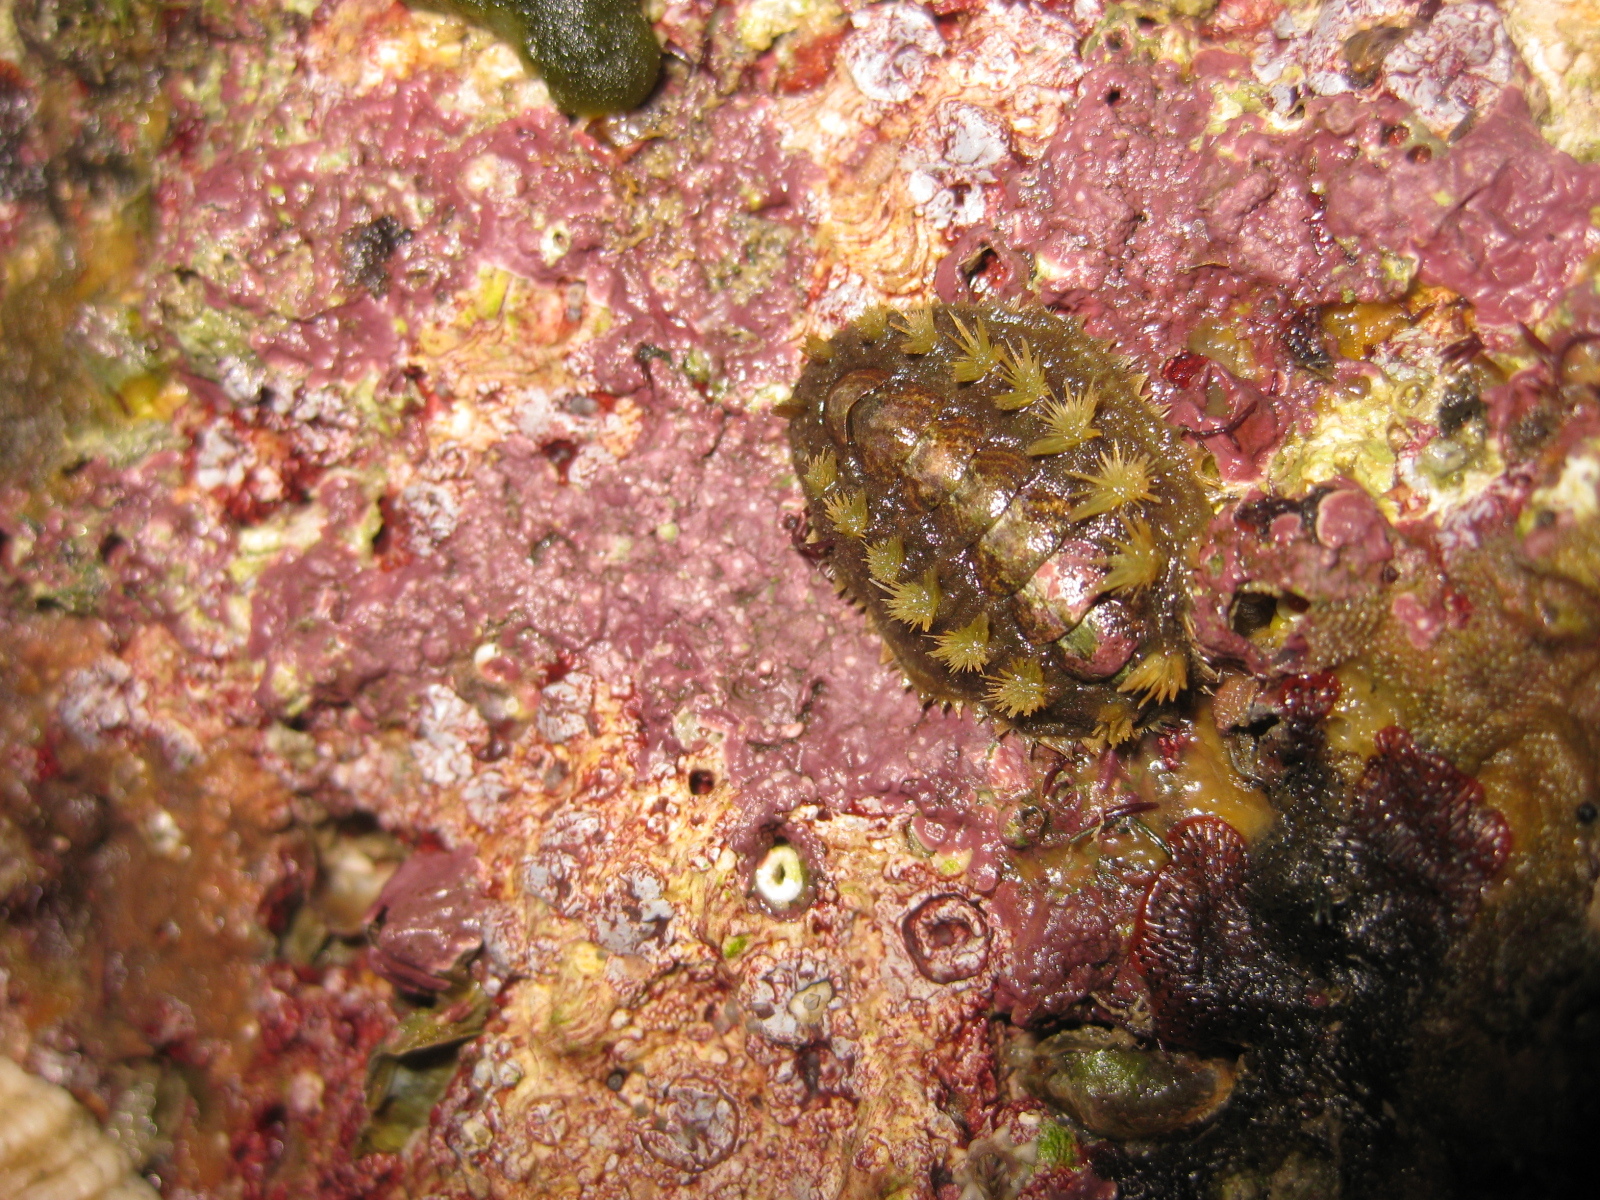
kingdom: Animalia
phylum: Mollusca
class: Polyplacophora
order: Chitonida
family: Acanthochitonidae
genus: Acanthochitona
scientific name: Acanthochitona zelandica
